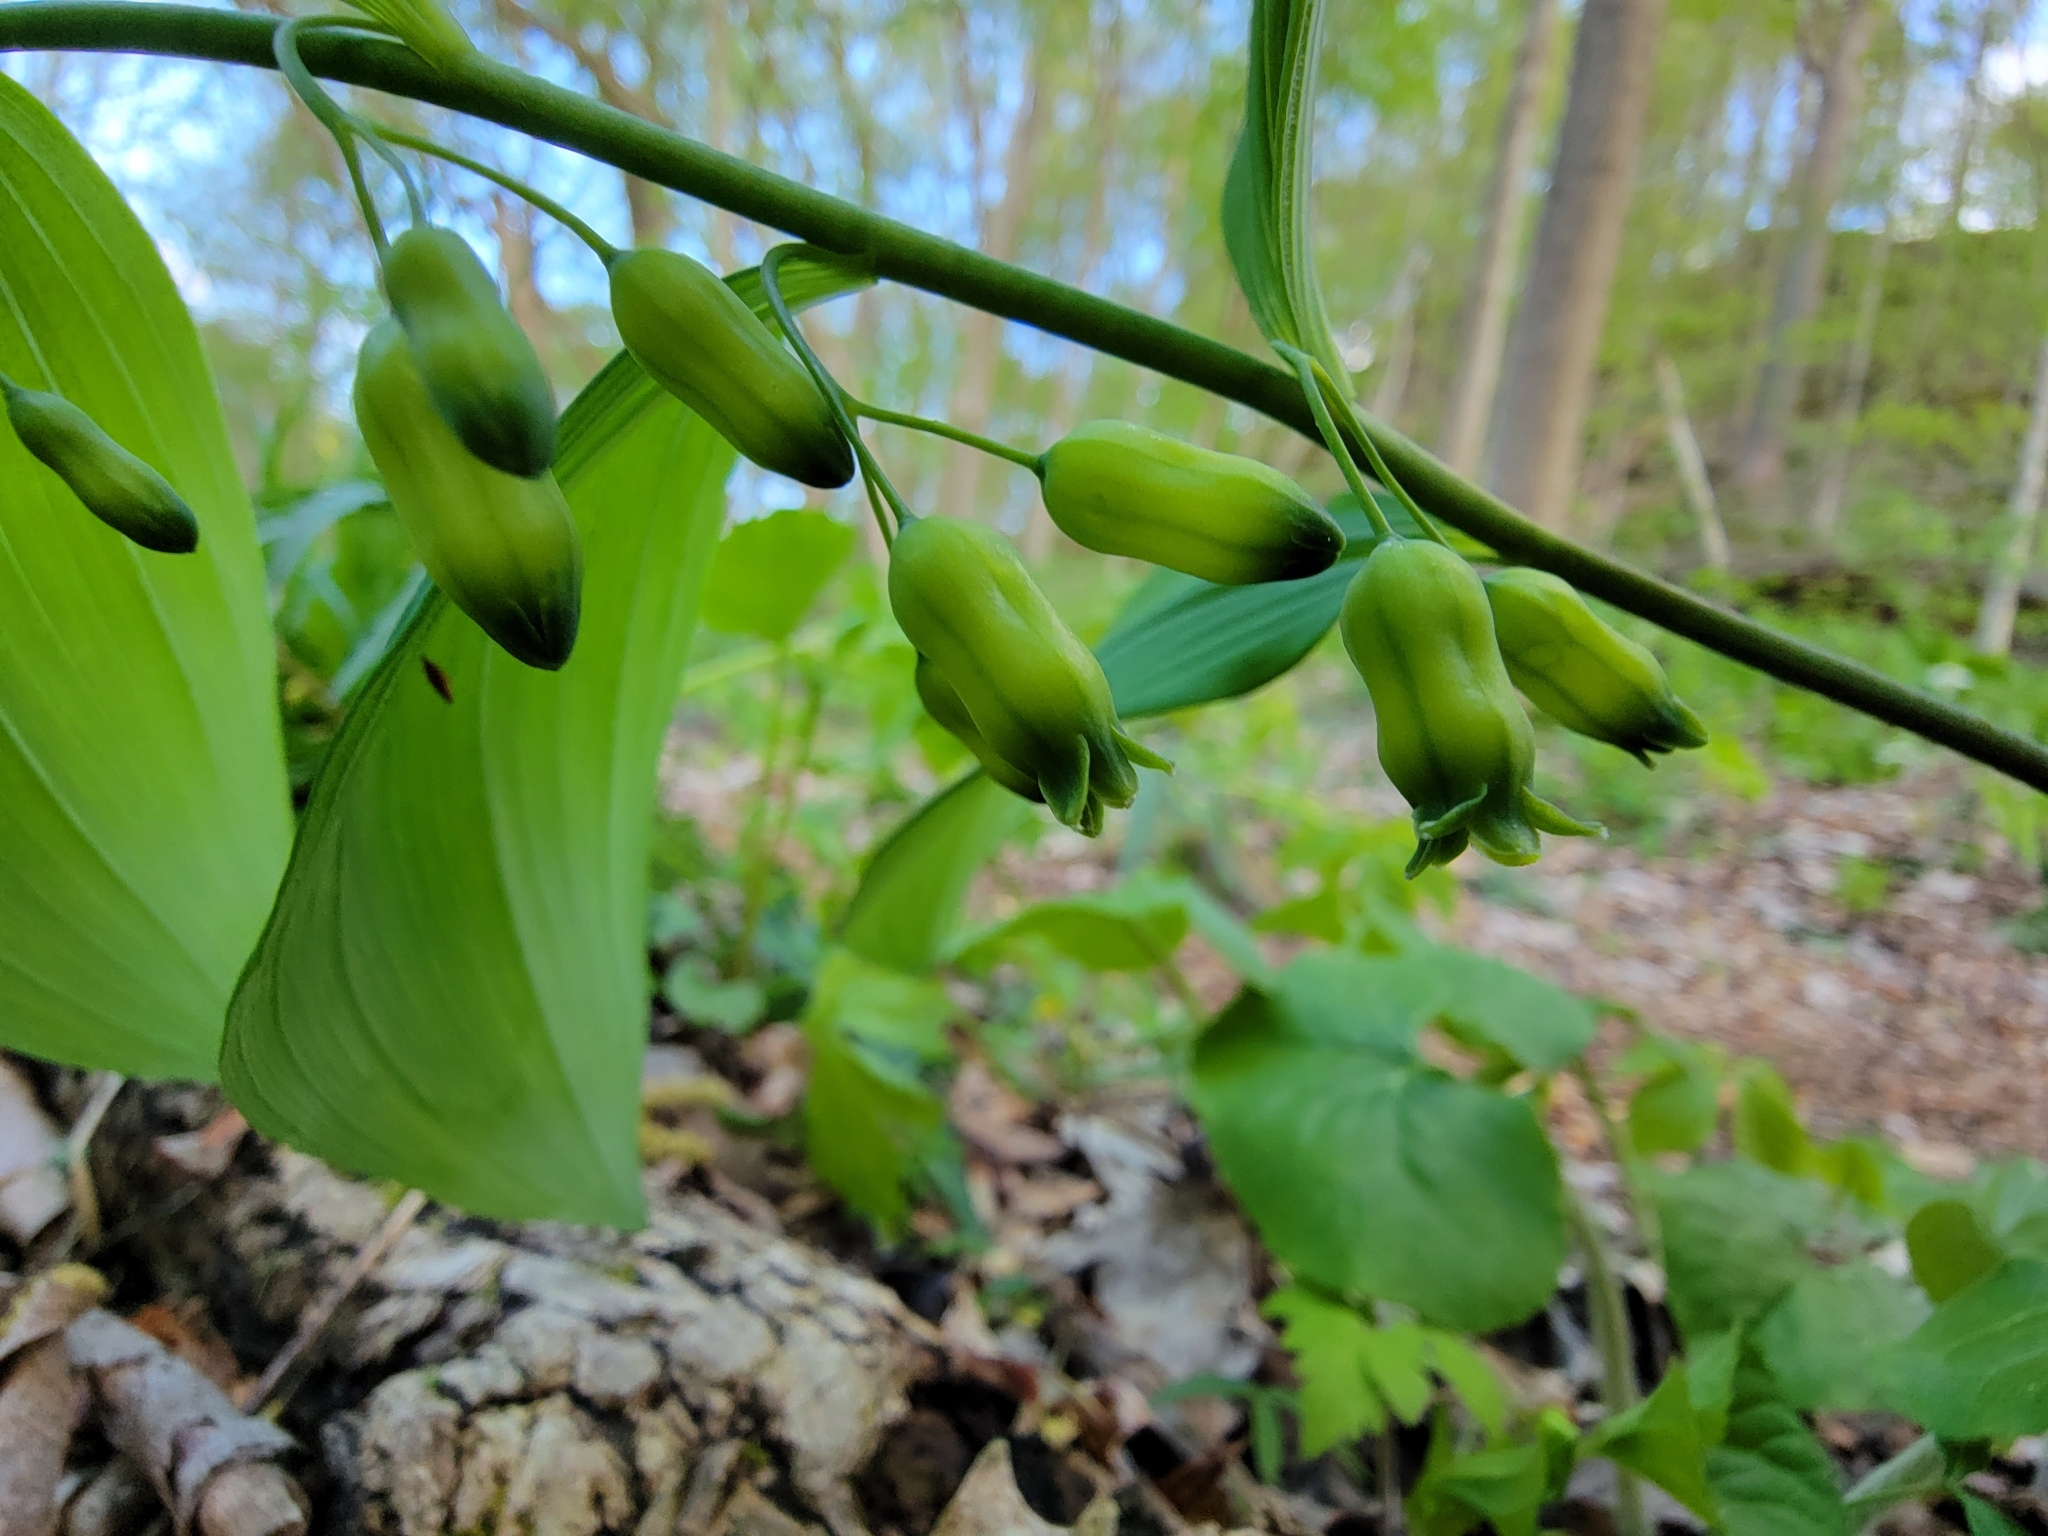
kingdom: Plantae
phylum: Tracheophyta
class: Liliopsida
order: Asparagales
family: Asparagaceae
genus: Polygonatum
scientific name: Polygonatum pubescens
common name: Downy solomon's seal
